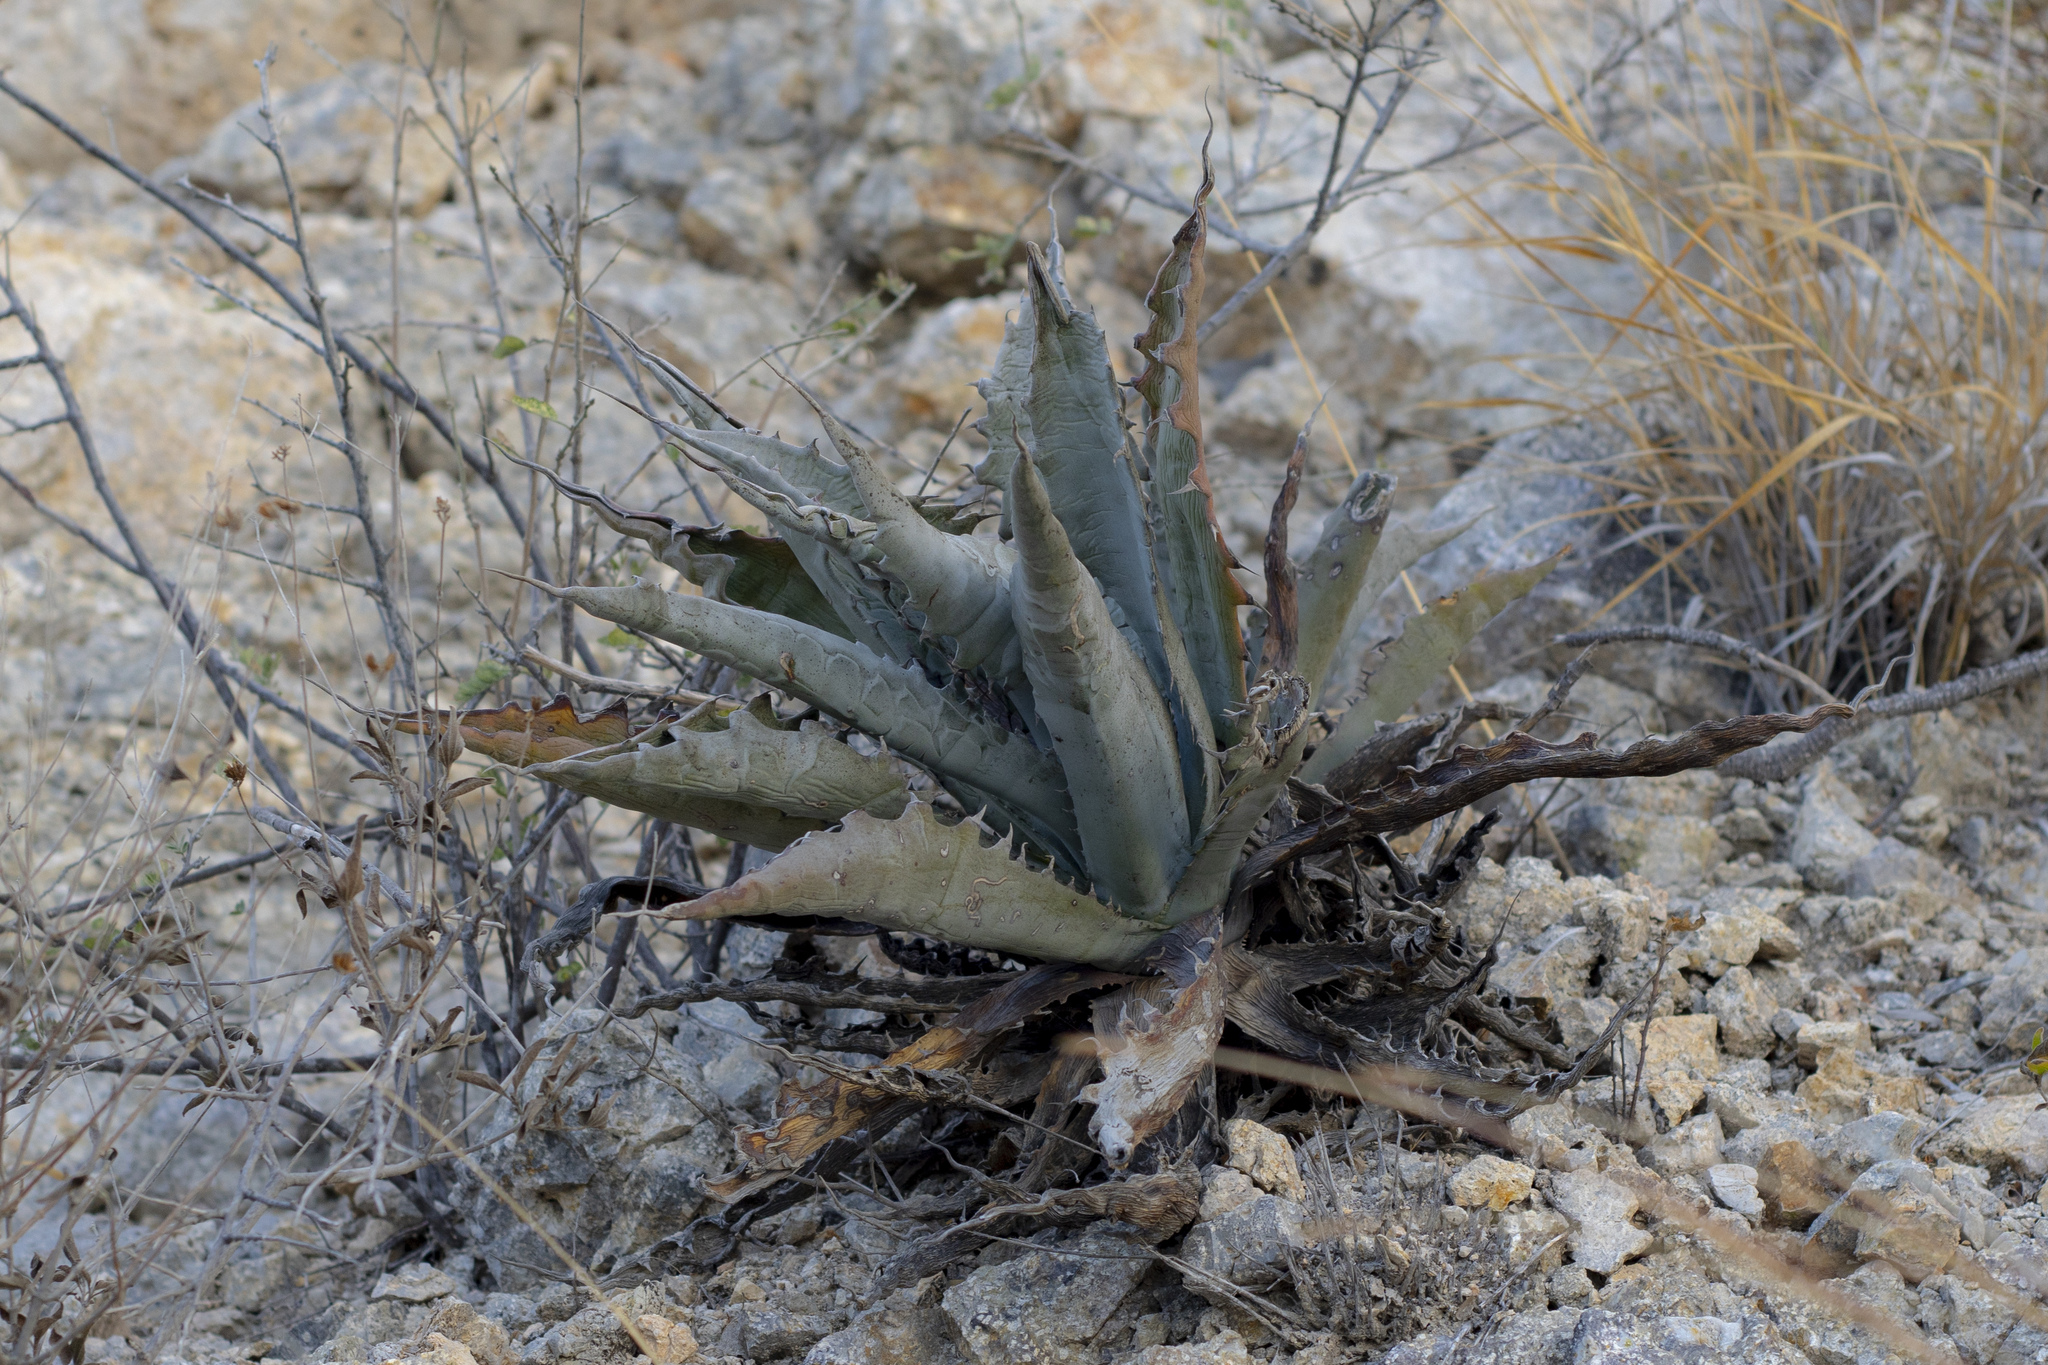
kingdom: Plantae
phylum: Tracheophyta
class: Liliopsida
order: Asparagales
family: Asparagaceae
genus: Agave
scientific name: Agave sobria
